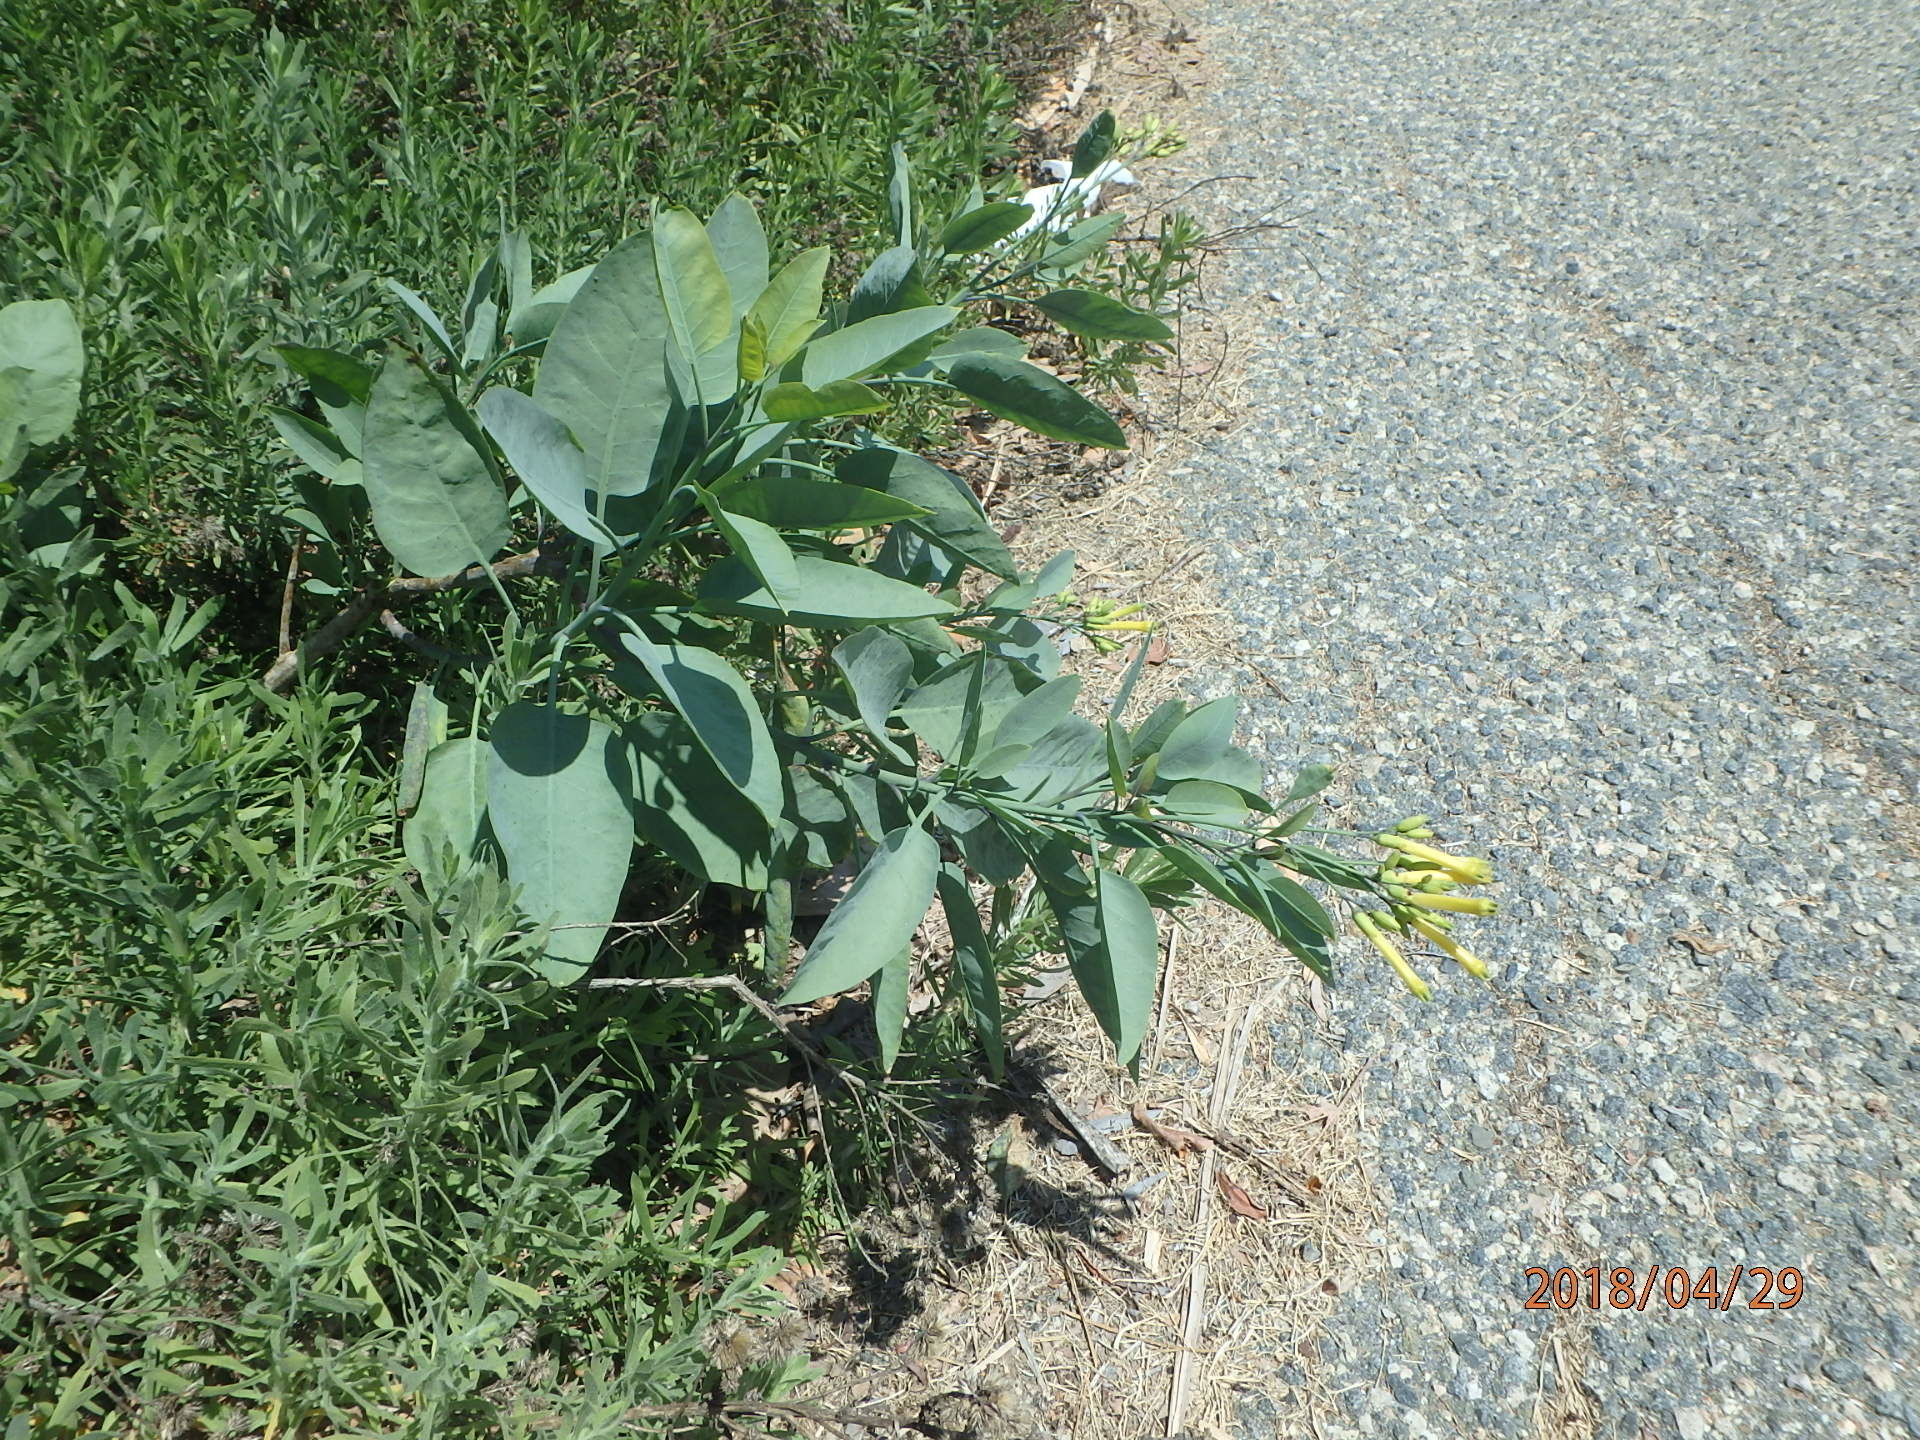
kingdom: Plantae
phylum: Tracheophyta
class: Magnoliopsida
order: Solanales
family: Solanaceae
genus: Nicotiana
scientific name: Nicotiana glauca
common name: Tree tobacco
